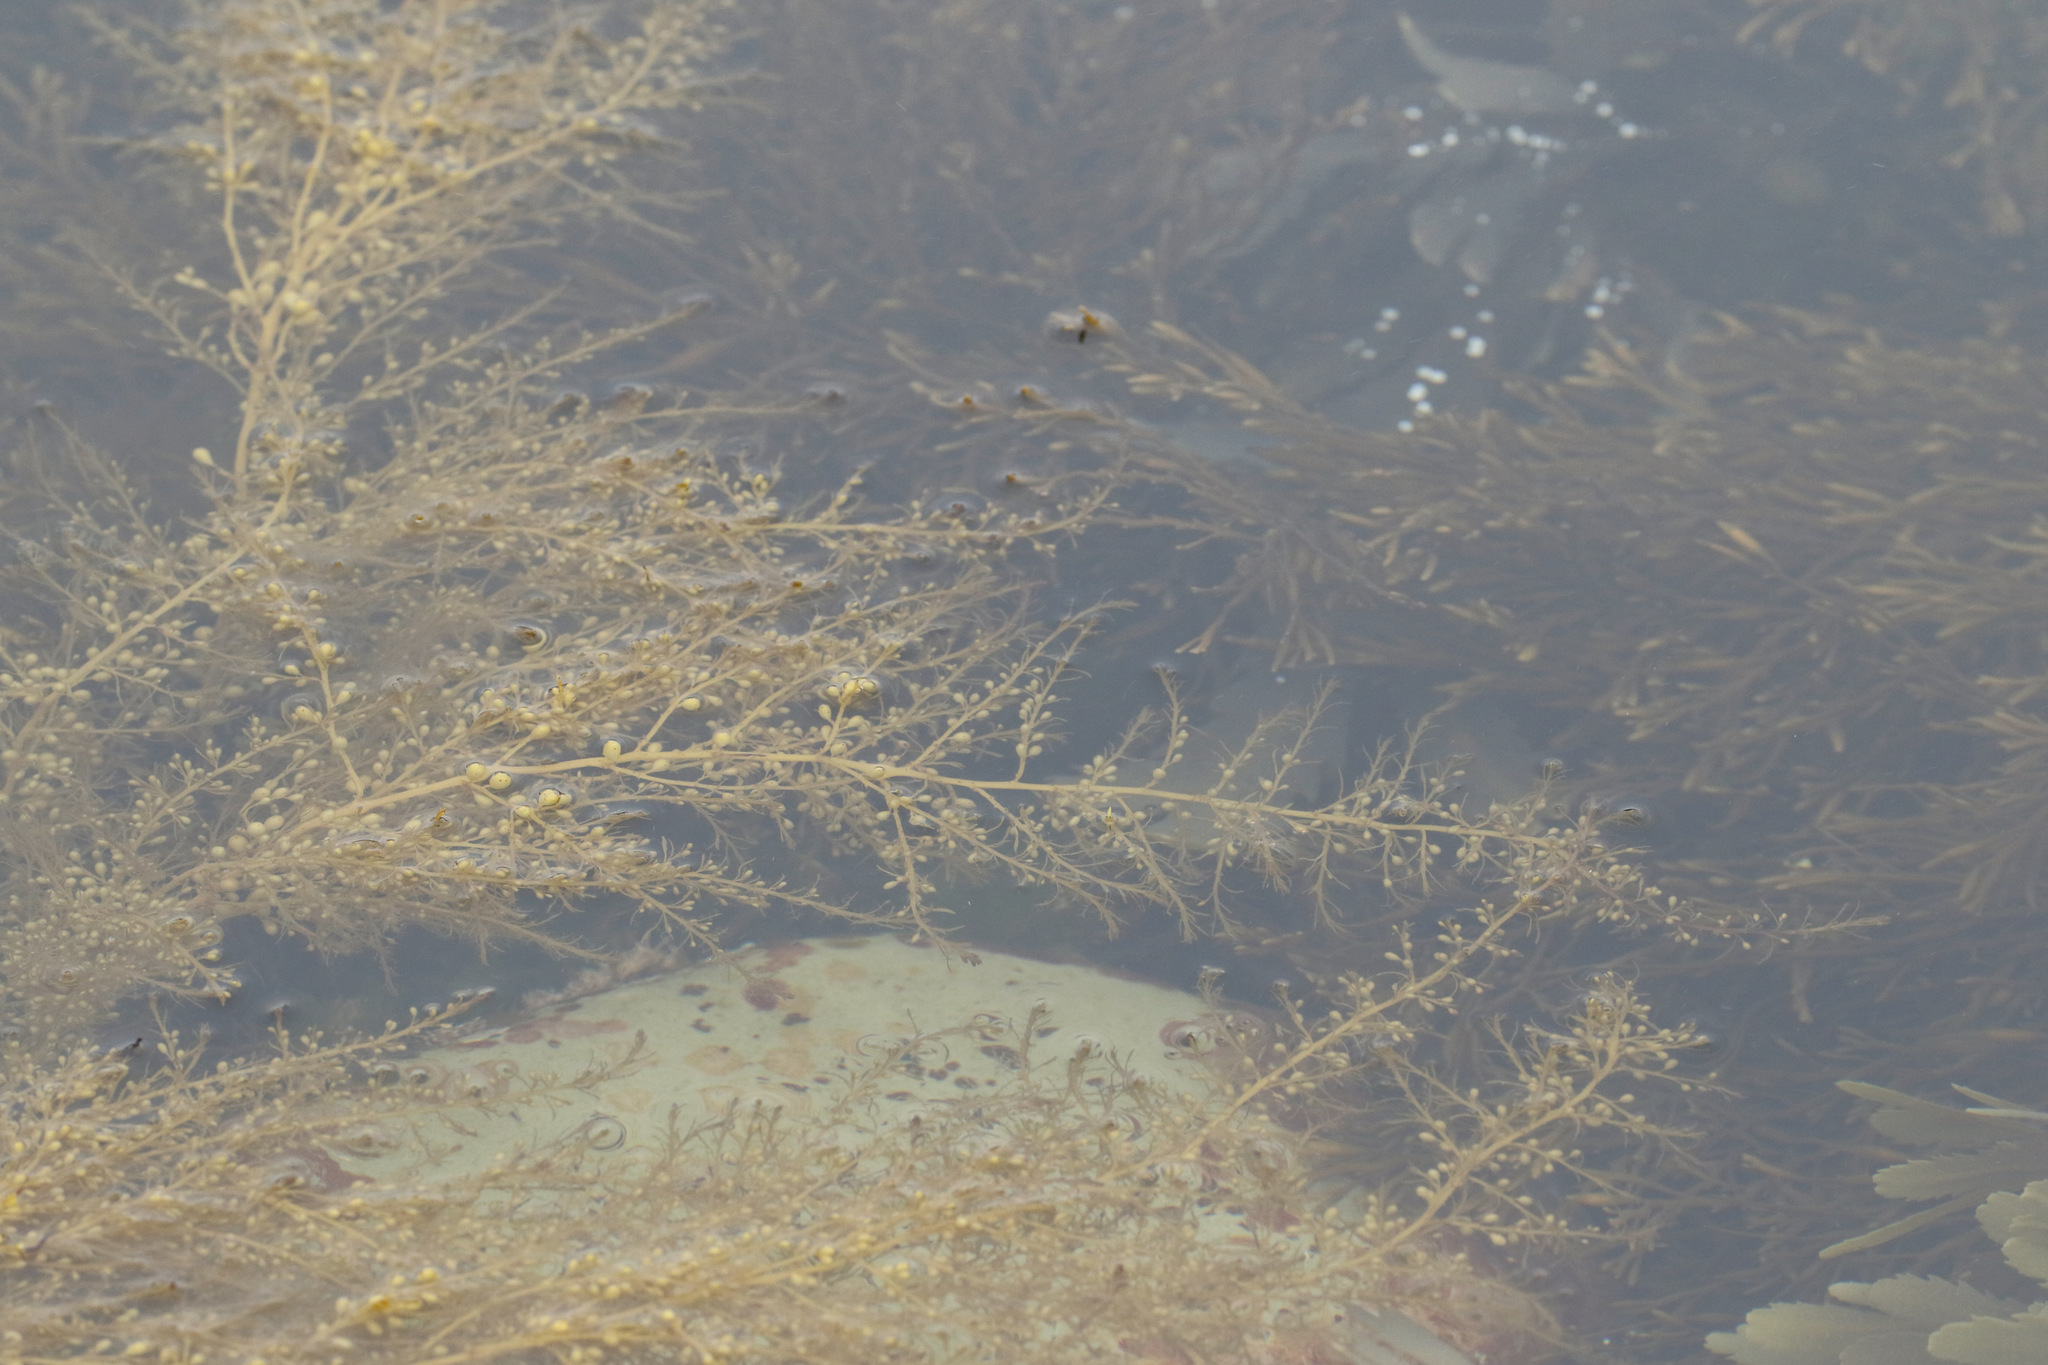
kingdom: Chromista
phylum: Ochrophyta
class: Phaeophyceae
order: Fucales
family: Sargassaceae
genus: Sargassum
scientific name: Sargassum muticum
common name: Japweed
